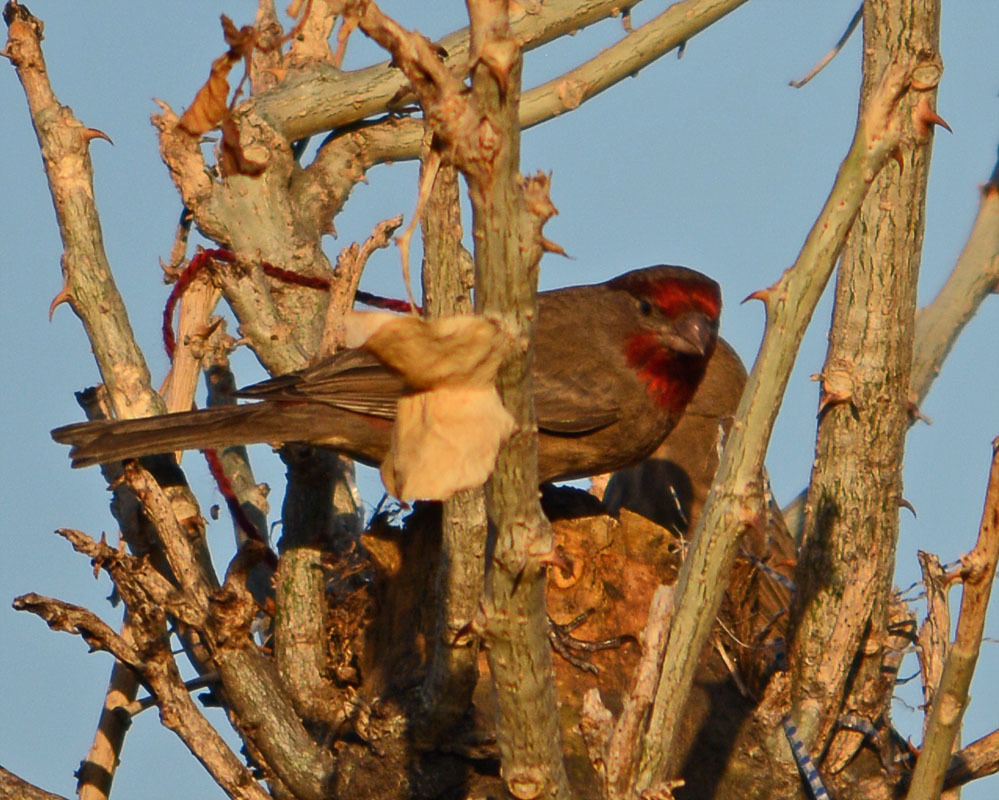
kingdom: Animalia
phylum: Chordata
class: Aves
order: Passeriformes
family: Fringillidae
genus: Haemorhous
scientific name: Haemorhous mexicanus
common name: House finch
